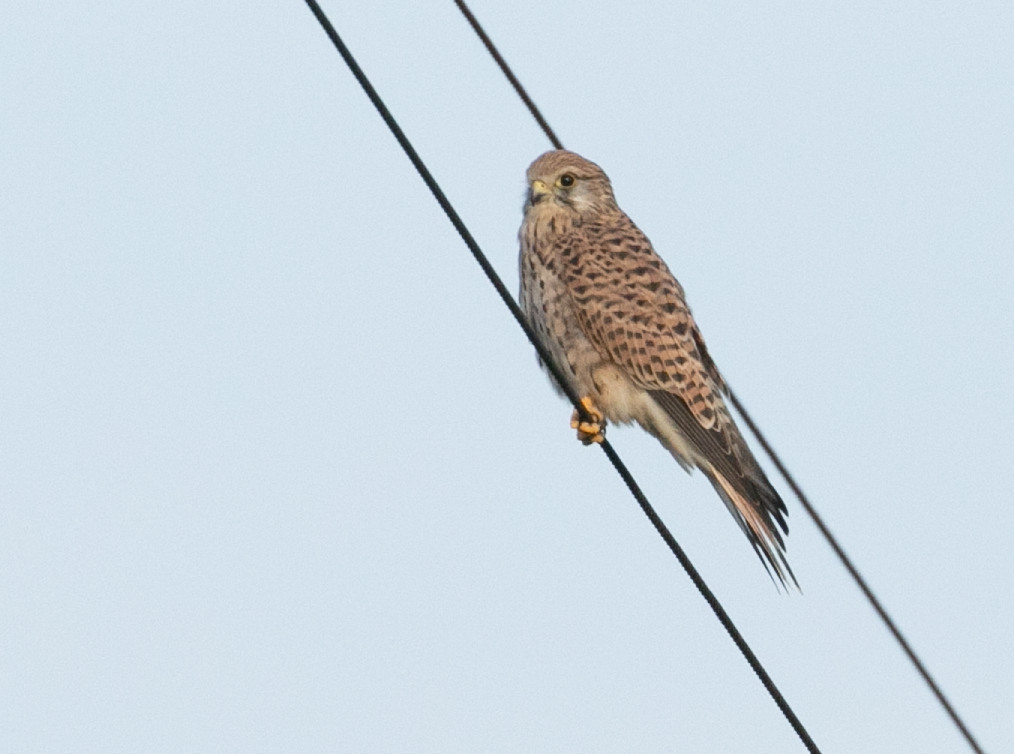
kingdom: Animalia
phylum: Chordata
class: Aves
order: Falconiformes
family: Falconidae
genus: Falco
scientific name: Falco tinnunculus
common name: Common kestrel
